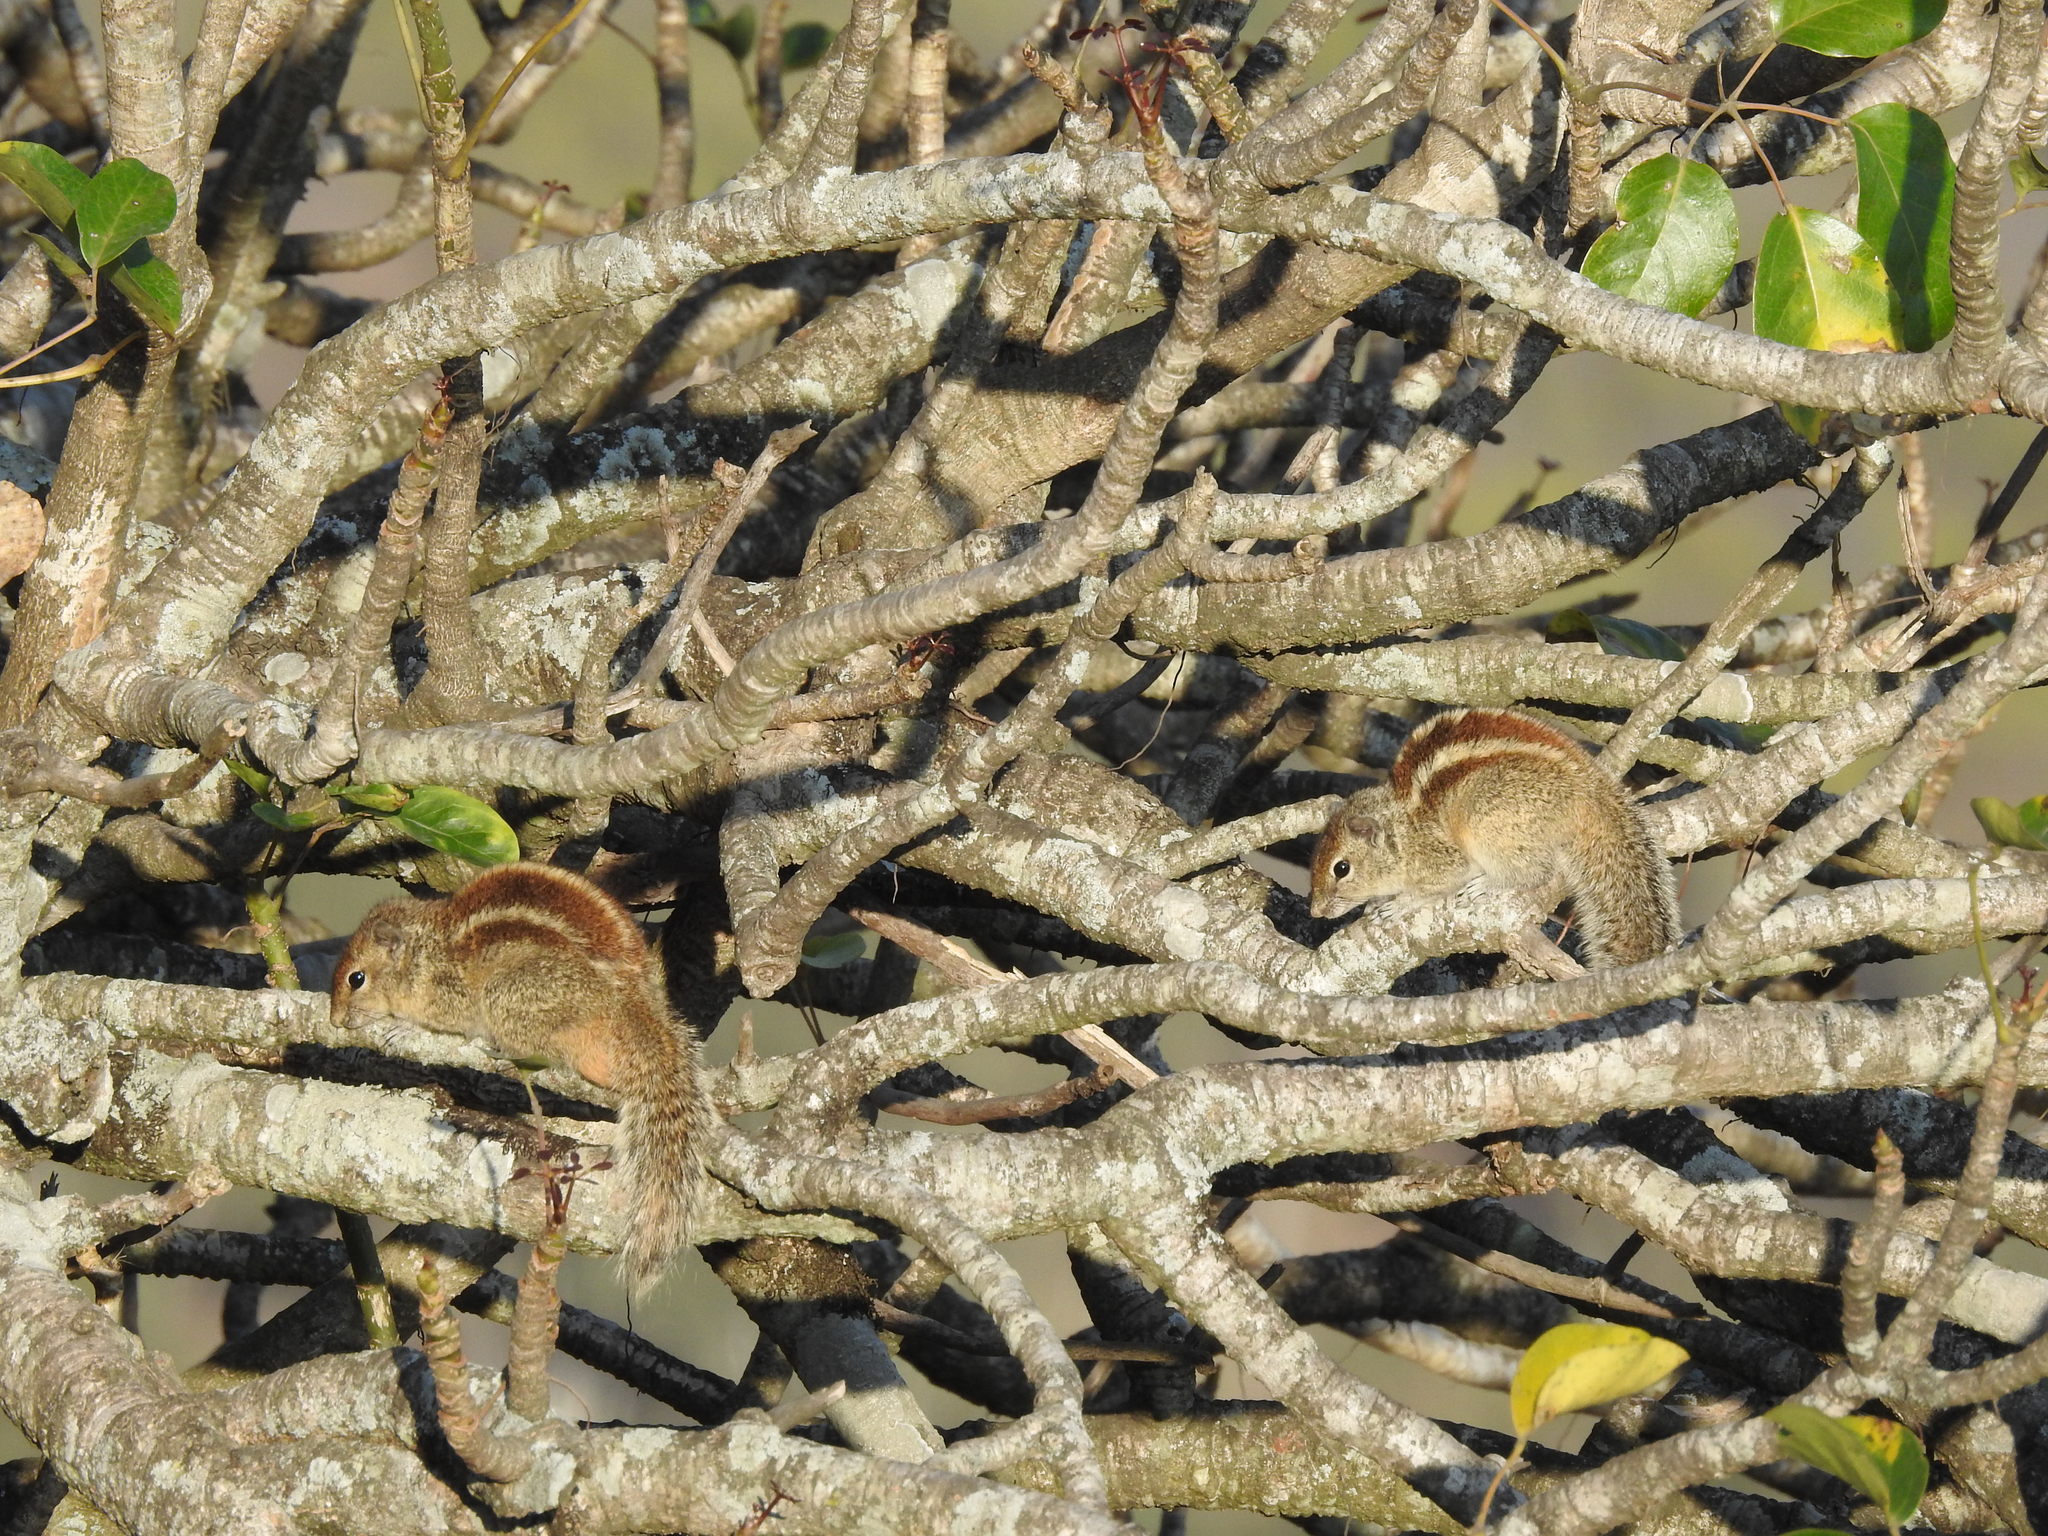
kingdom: Animalia
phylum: Chordata
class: Mammalia
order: Rodentia
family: Sciuridae
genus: Funambulus
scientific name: Funambulus palmarum
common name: Indian palm squirrel
